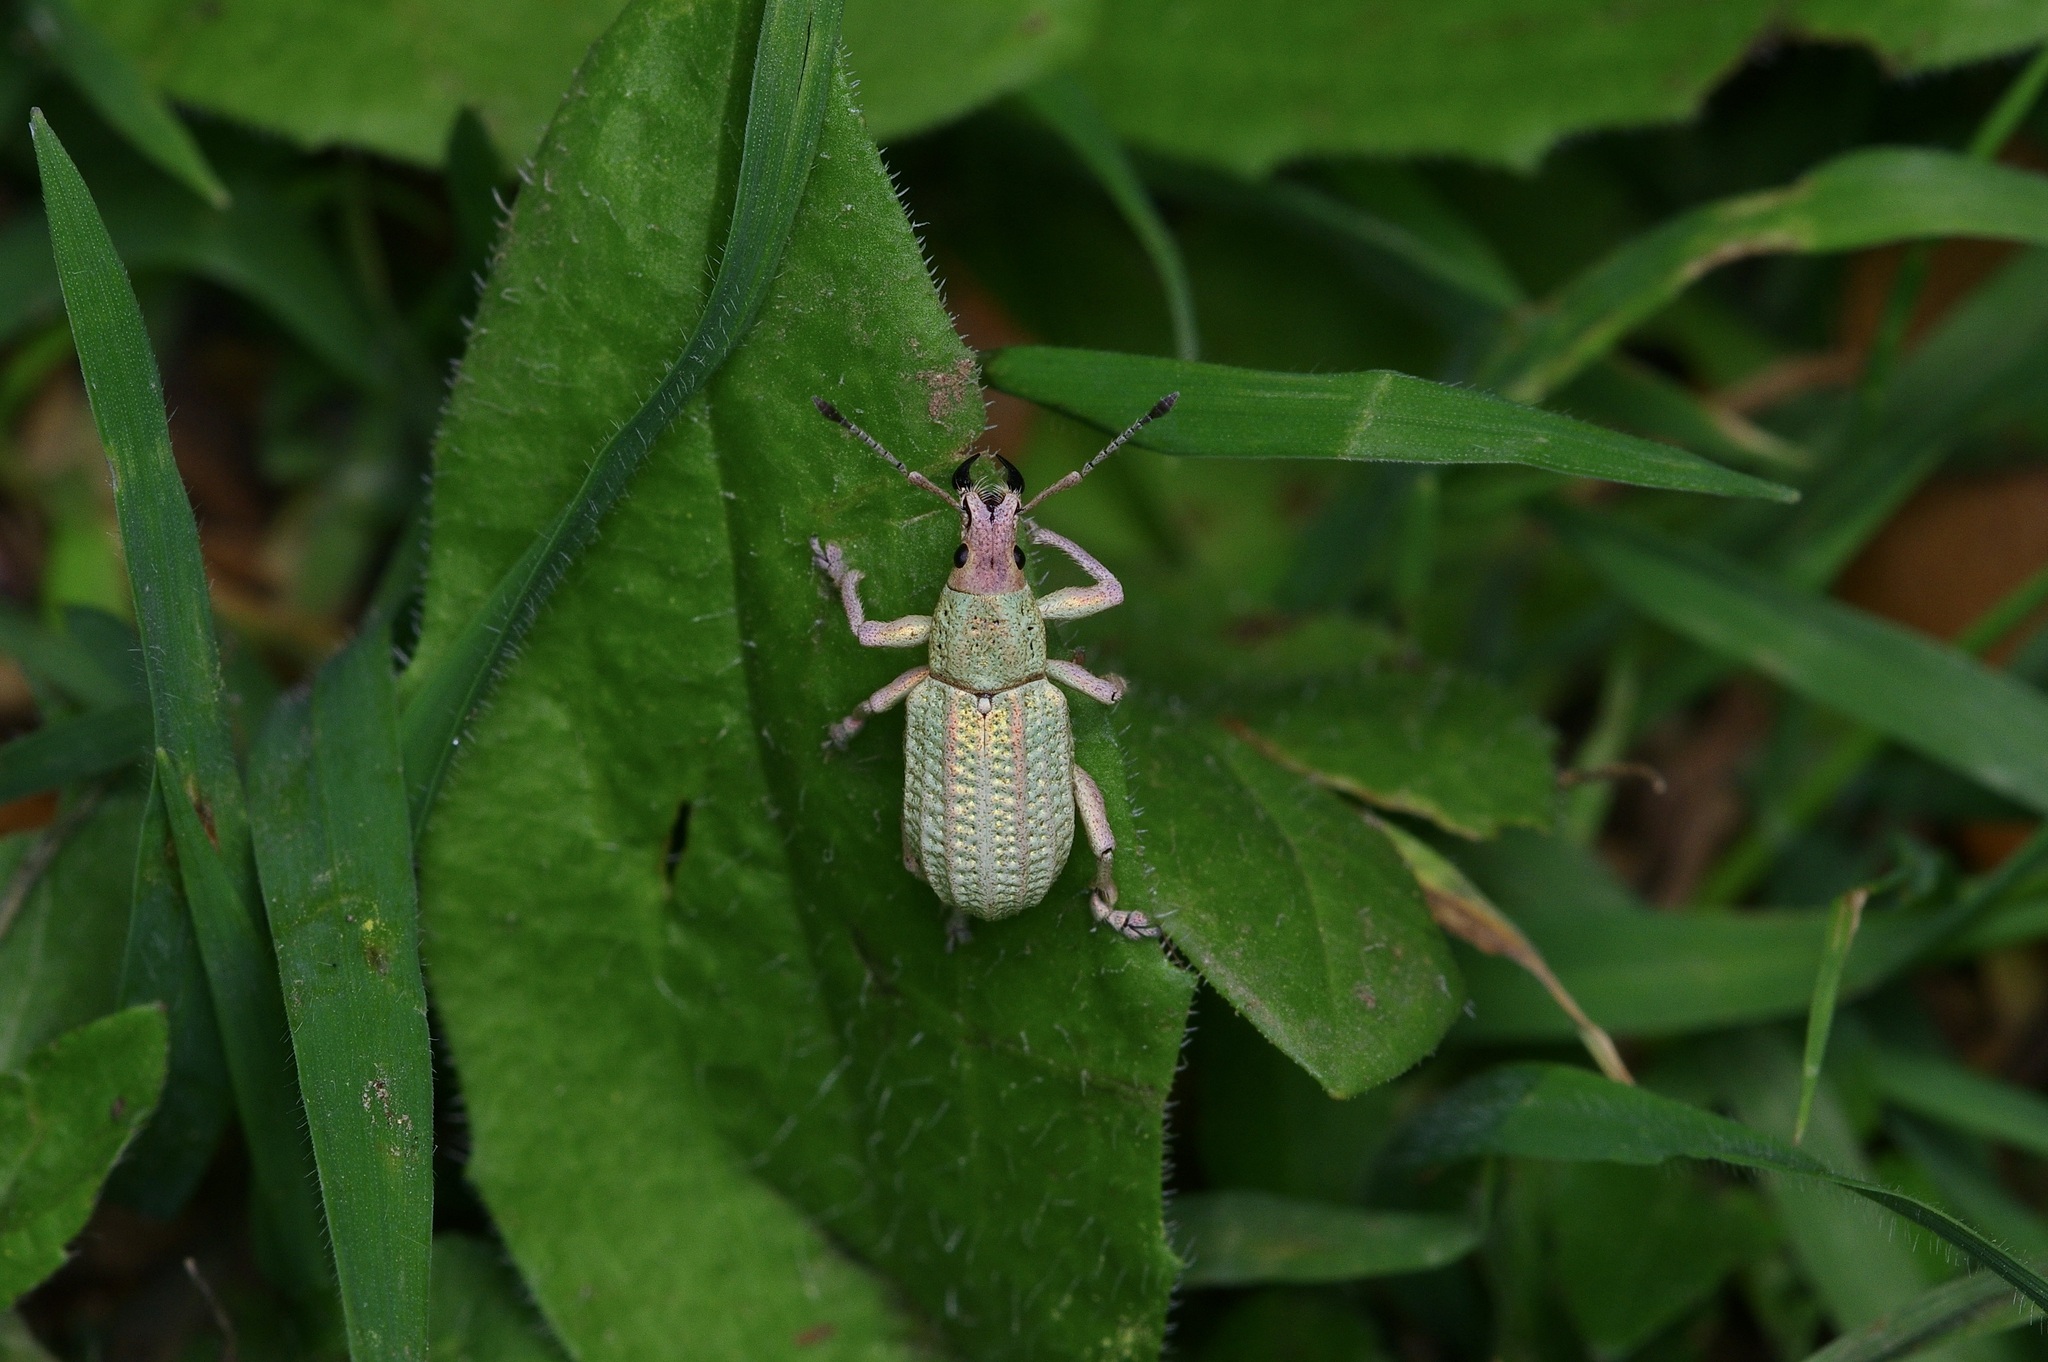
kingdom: Animalia
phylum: Arthropoda
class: Insecta
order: Coleoptera
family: Curculionidae
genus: Compsus
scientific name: Compsus auricephalus
